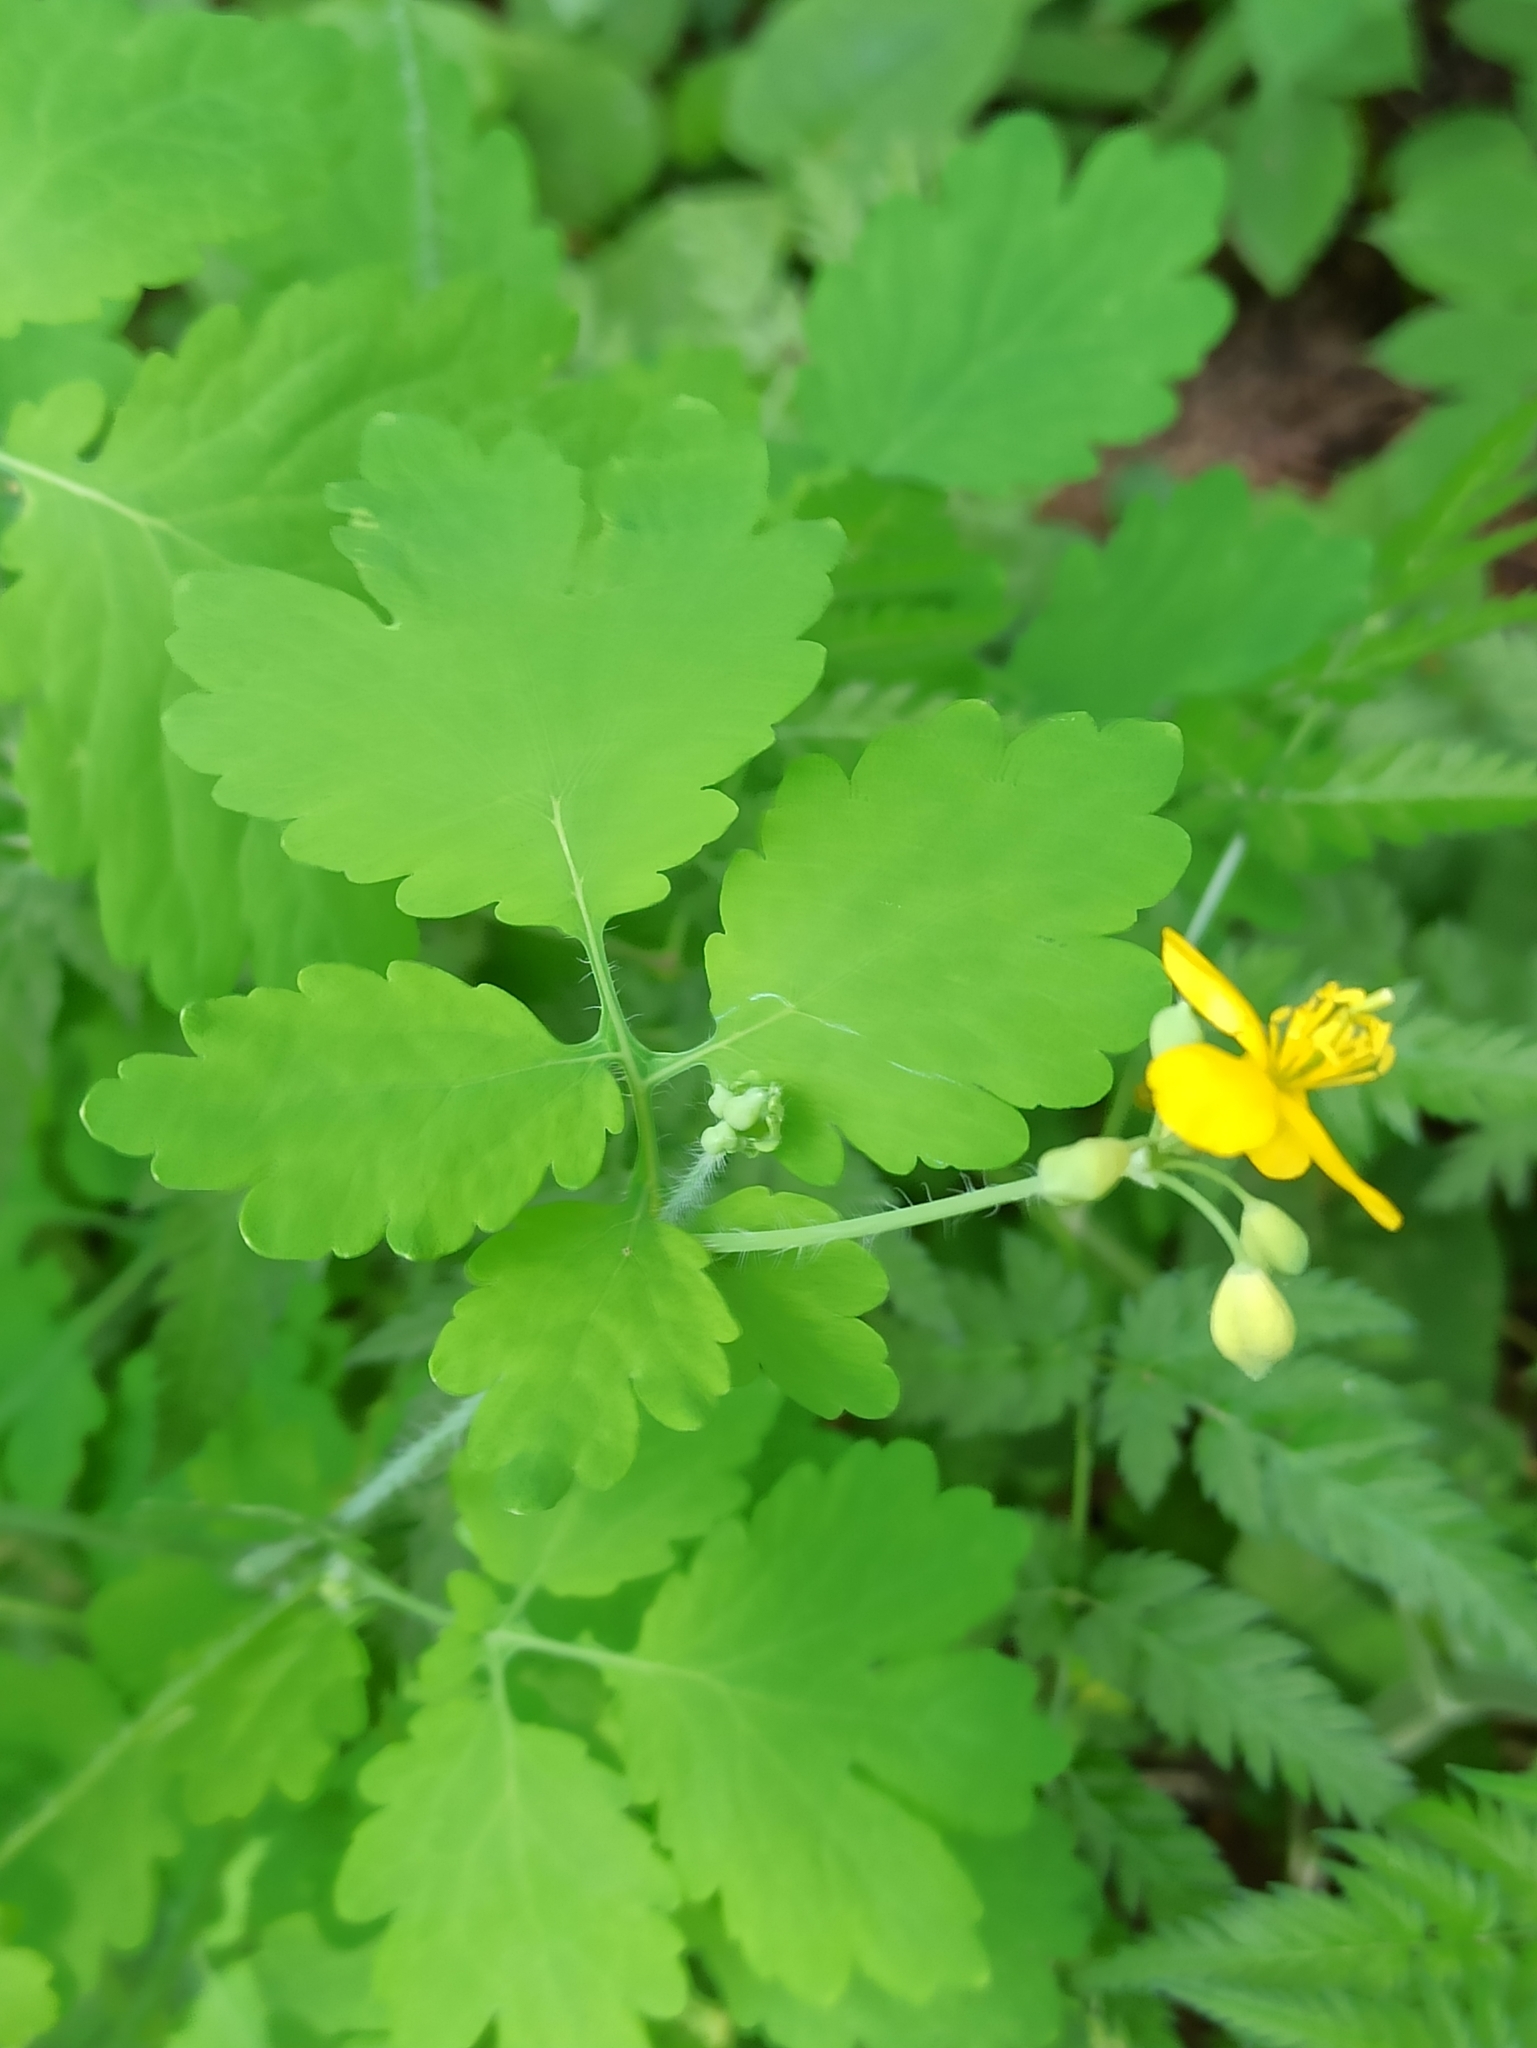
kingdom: Plantae
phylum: Tracheophyta
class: Magnoliopsida
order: Ranunculales
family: Papaveraceae
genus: Chelidonium
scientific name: Chelidonium majus
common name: Greater celandine
